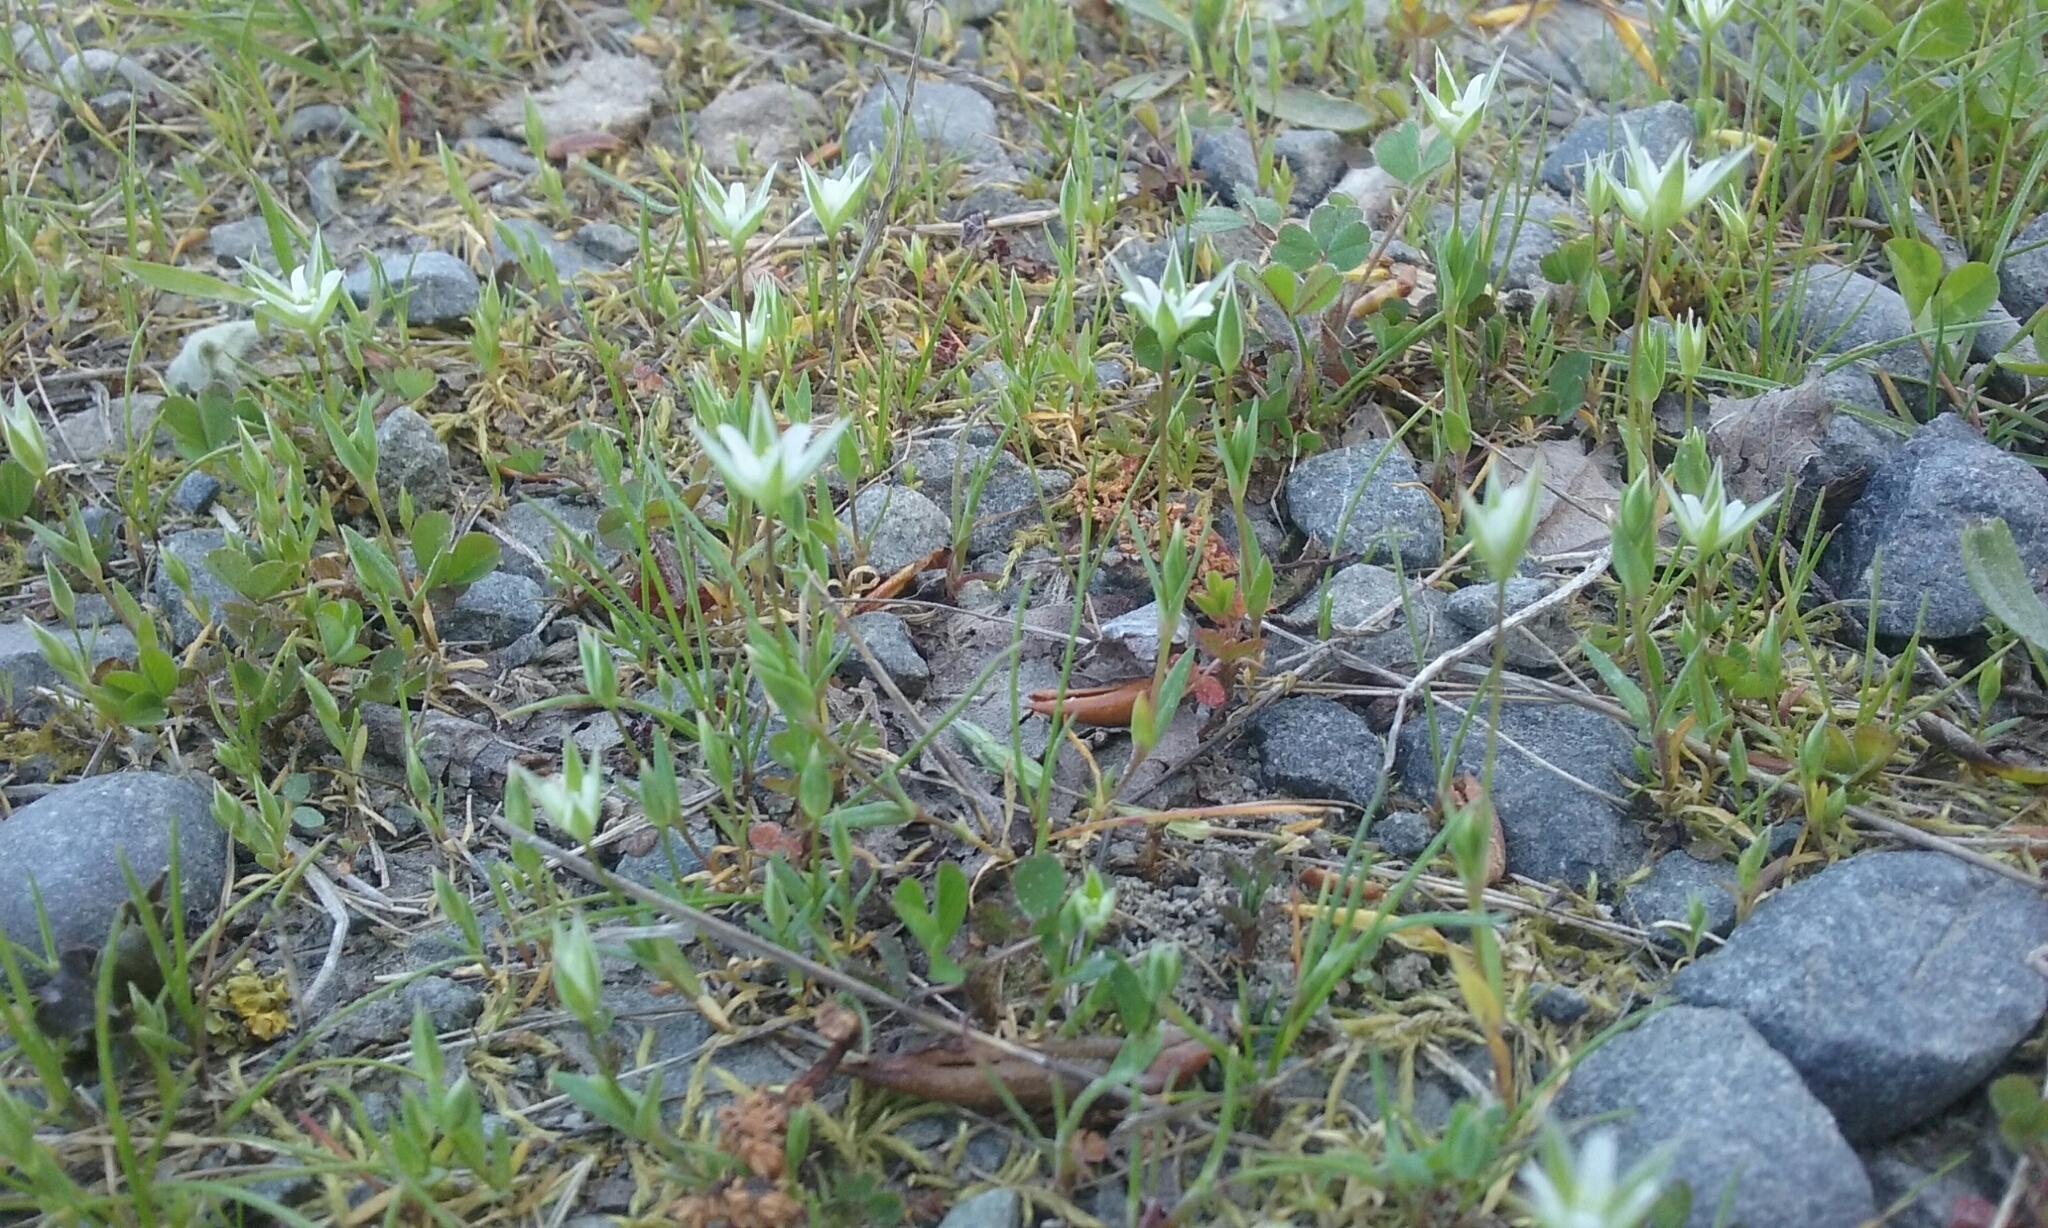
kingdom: Plantae
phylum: Tracheophyta
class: Magnoliopsida
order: Caryophyllales
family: Caryophyllaceae
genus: Moenchia
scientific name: Moenchia erecta
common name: Upright chickweed
